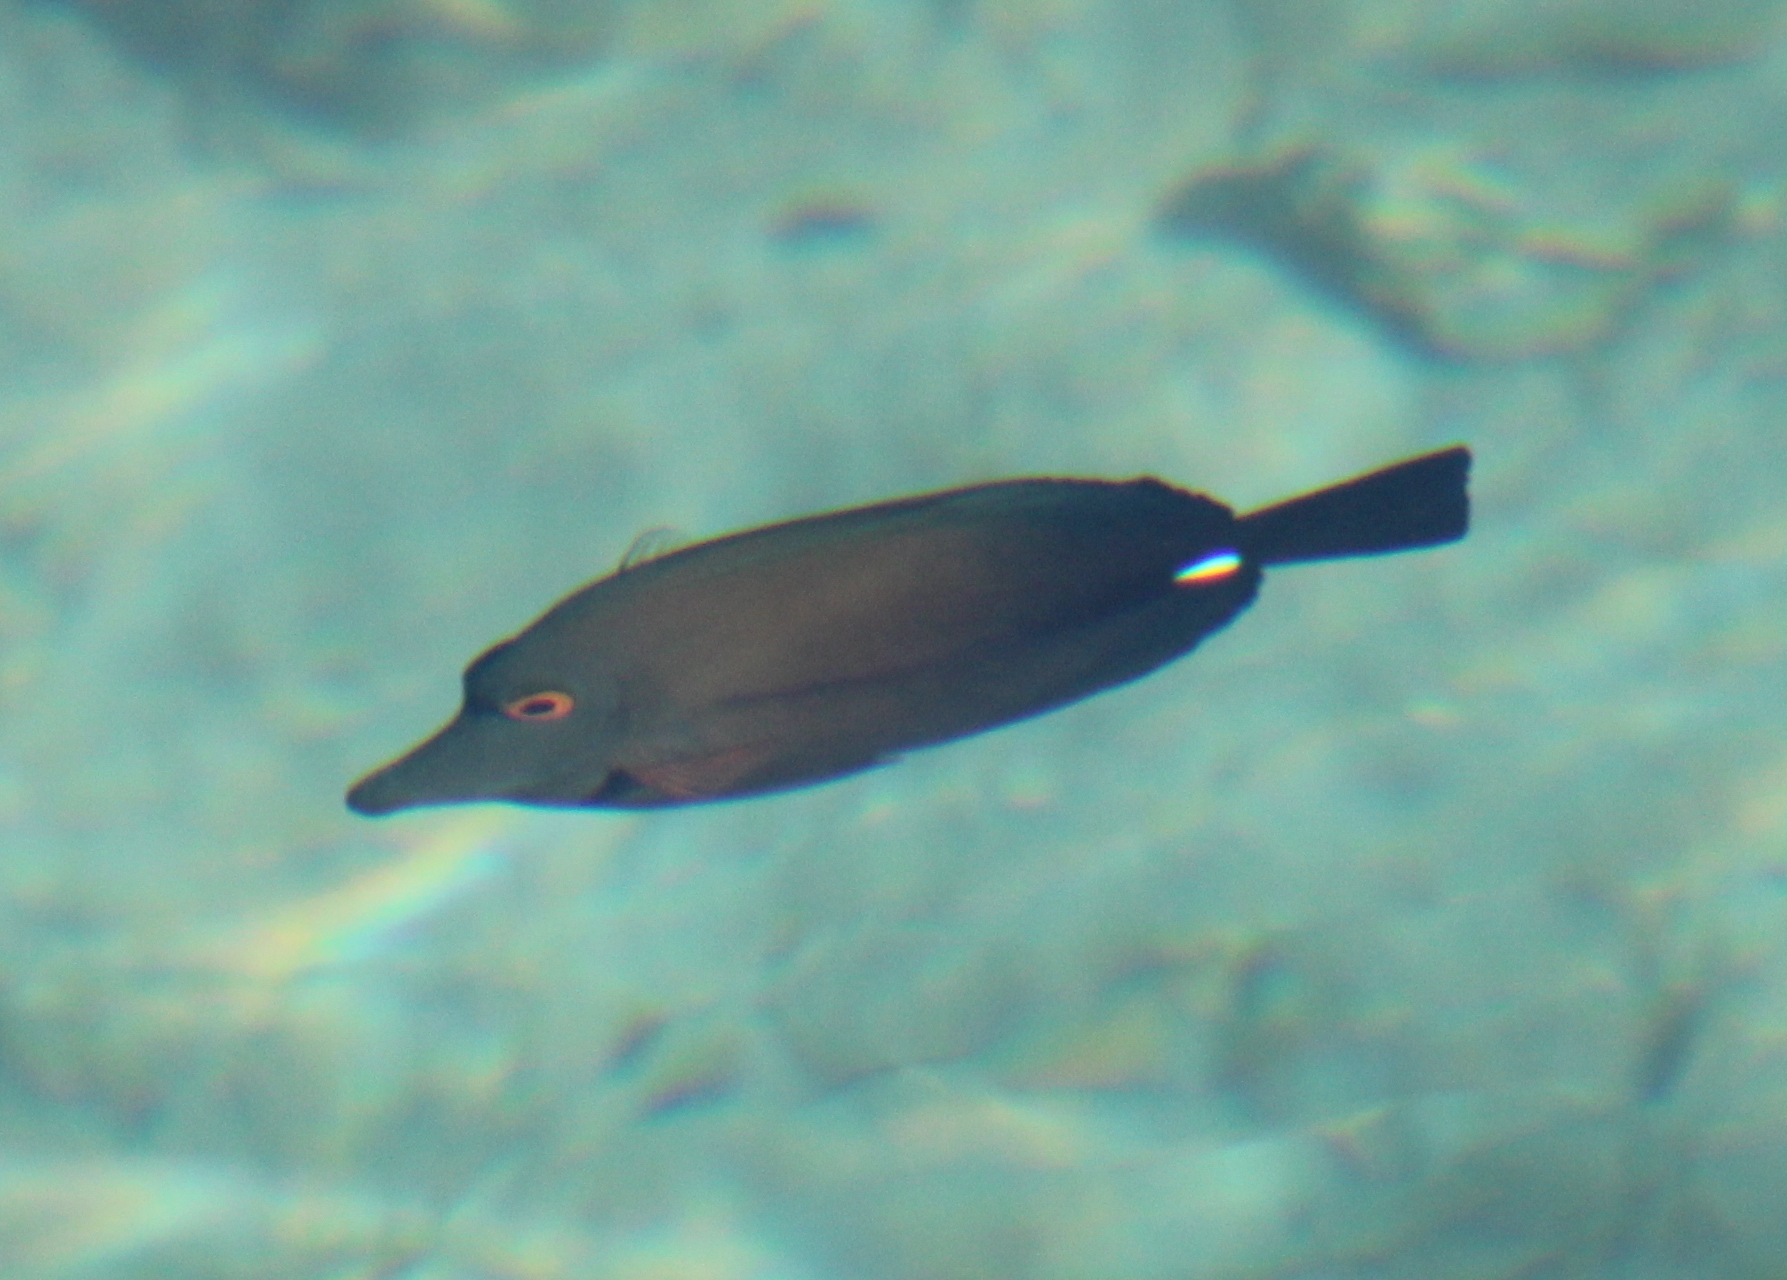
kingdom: Animalia
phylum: Chordata
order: Perciformes
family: Acanthuridae
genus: Zebrasoma
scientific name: Zebrasoma scopas
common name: Twotone tang
